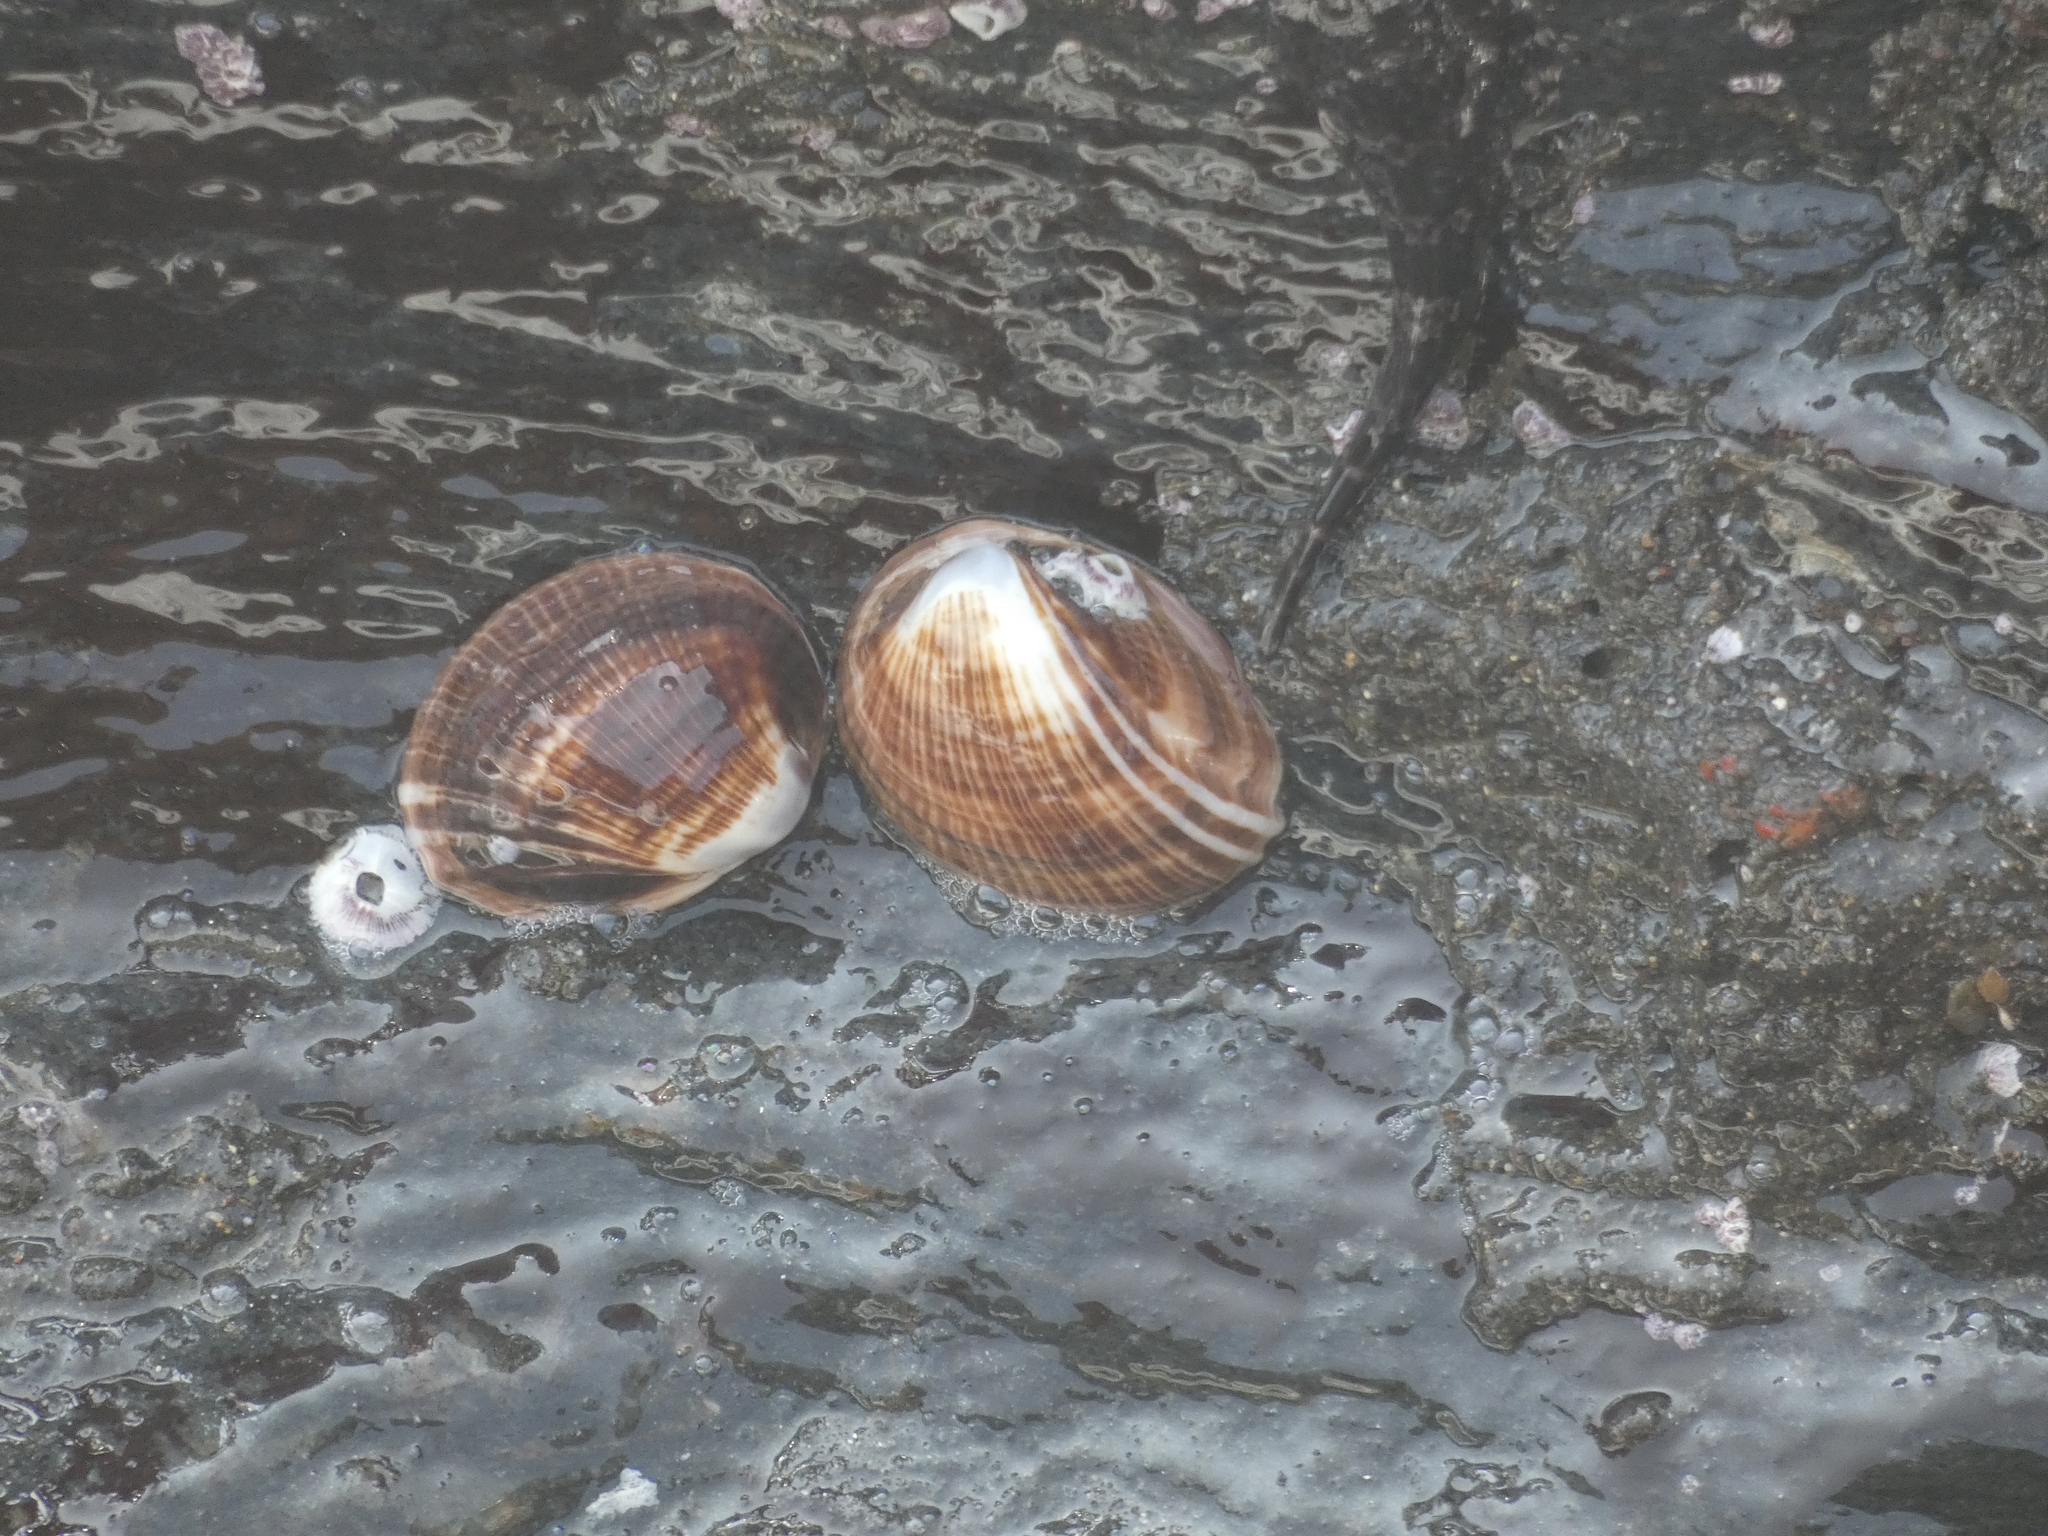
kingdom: Animalia
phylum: Mollusca
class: Gastropoda
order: Neogastropoda
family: Muricidae
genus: Concholepas
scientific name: Concholepas concholepas
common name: Chilean abalone
